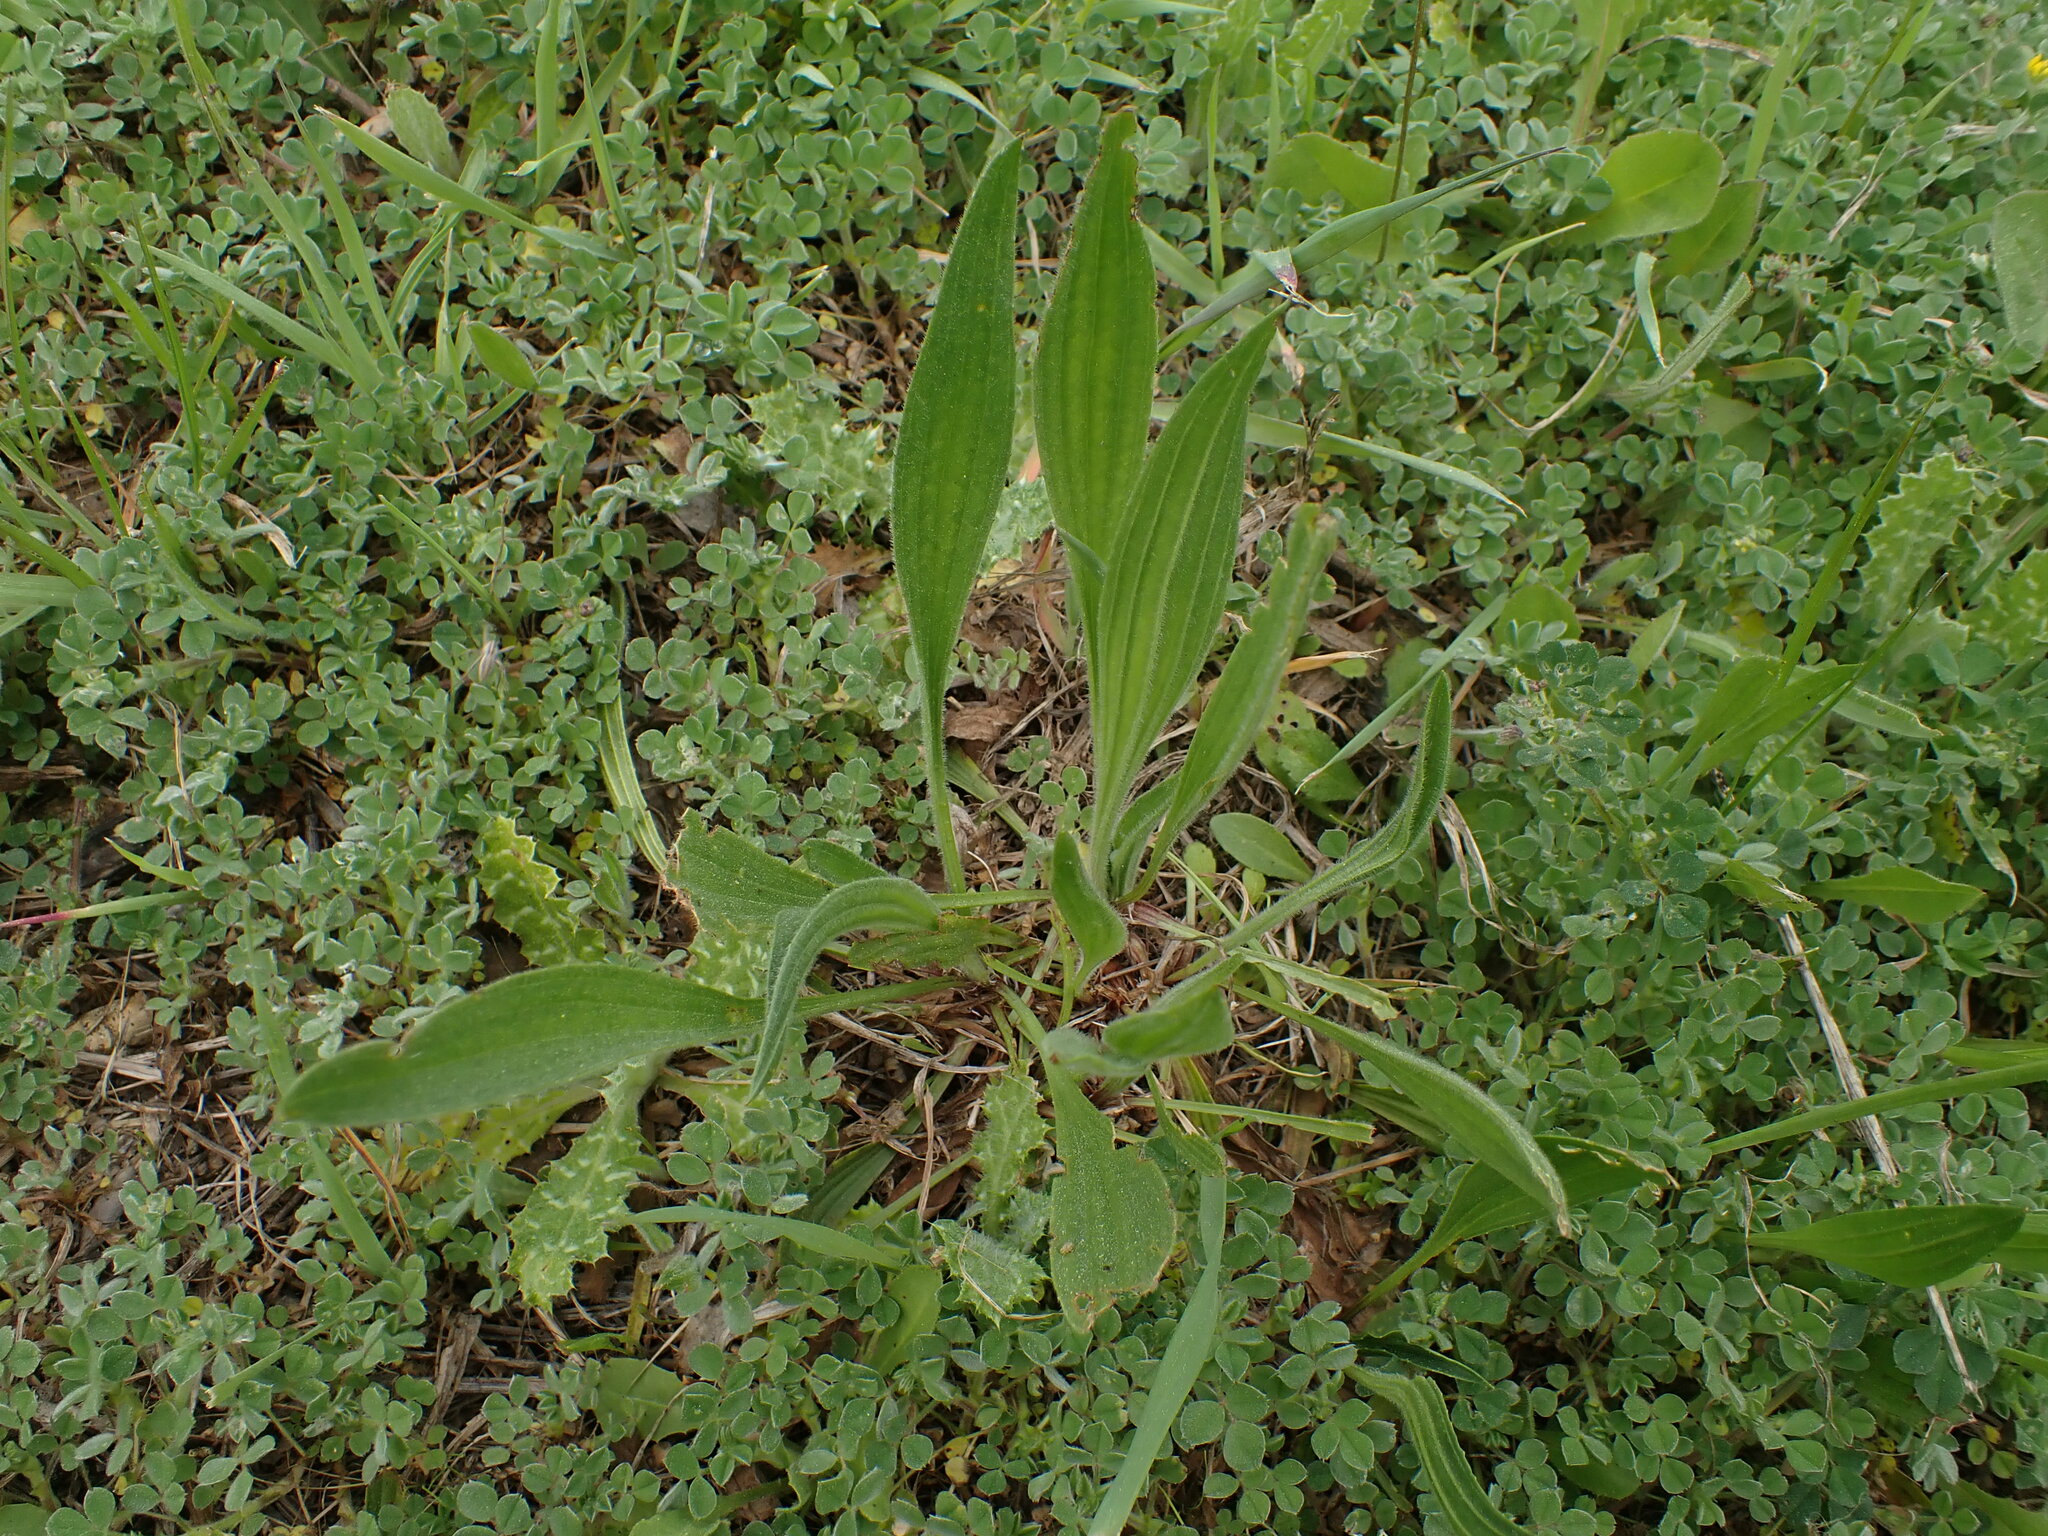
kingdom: Plantae
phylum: Tracheophyta
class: Magnoliopsida
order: Lamiales
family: Plantaginaceae
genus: Plantago
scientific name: Plantago lanceolata
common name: Ribwort plantain
